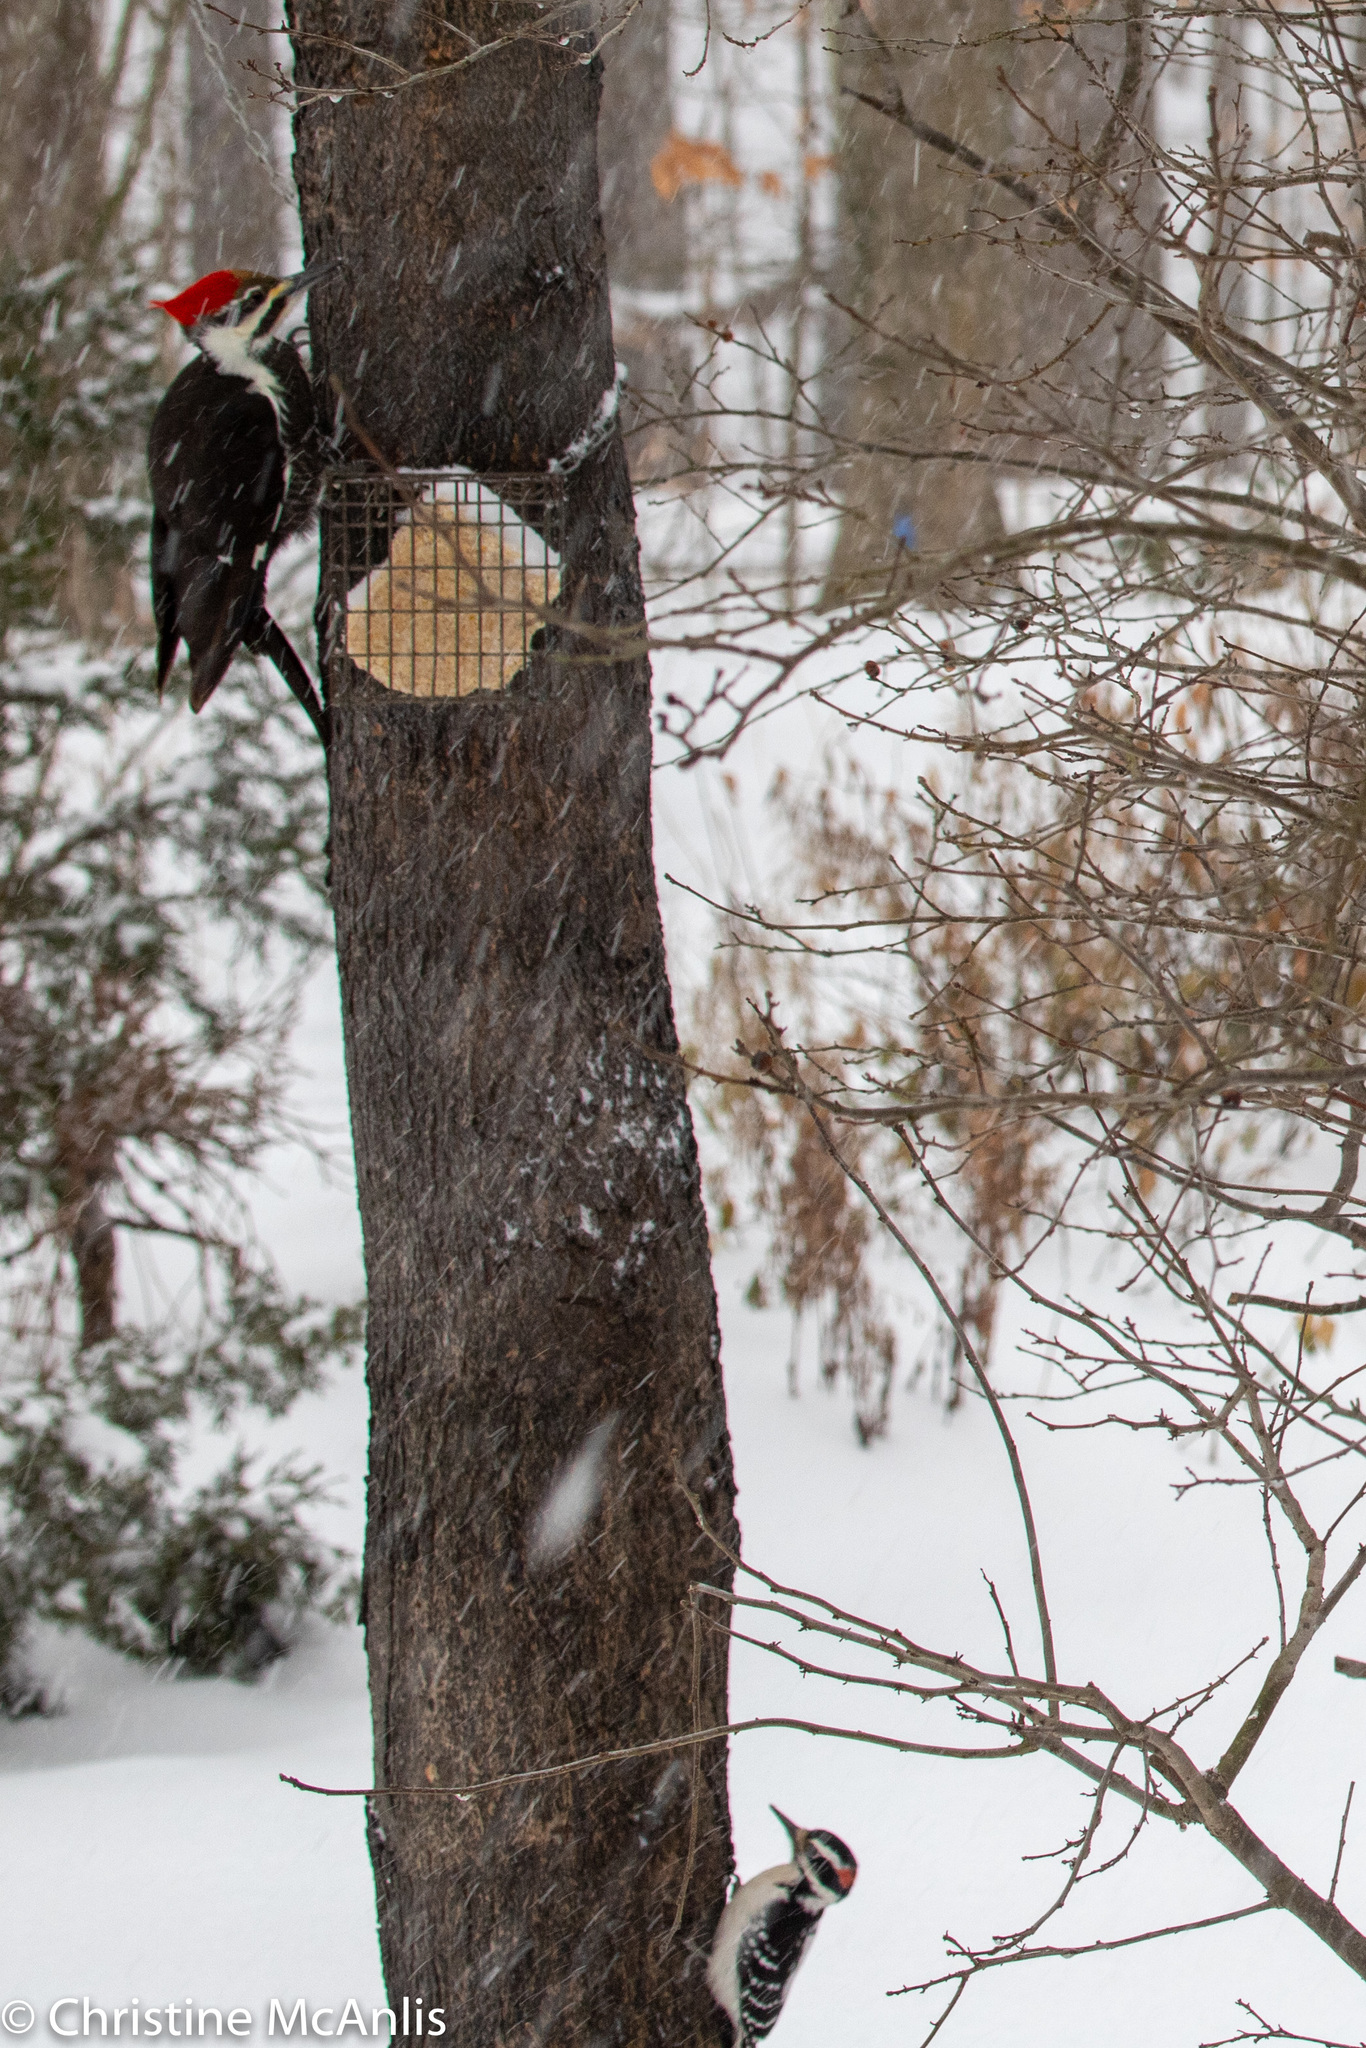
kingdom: Animalia
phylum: Chordata
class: Aves
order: Piciformes
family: Picidae
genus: Dryocopus
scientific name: Dryocopus pileatus
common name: Pileated woodpecker
